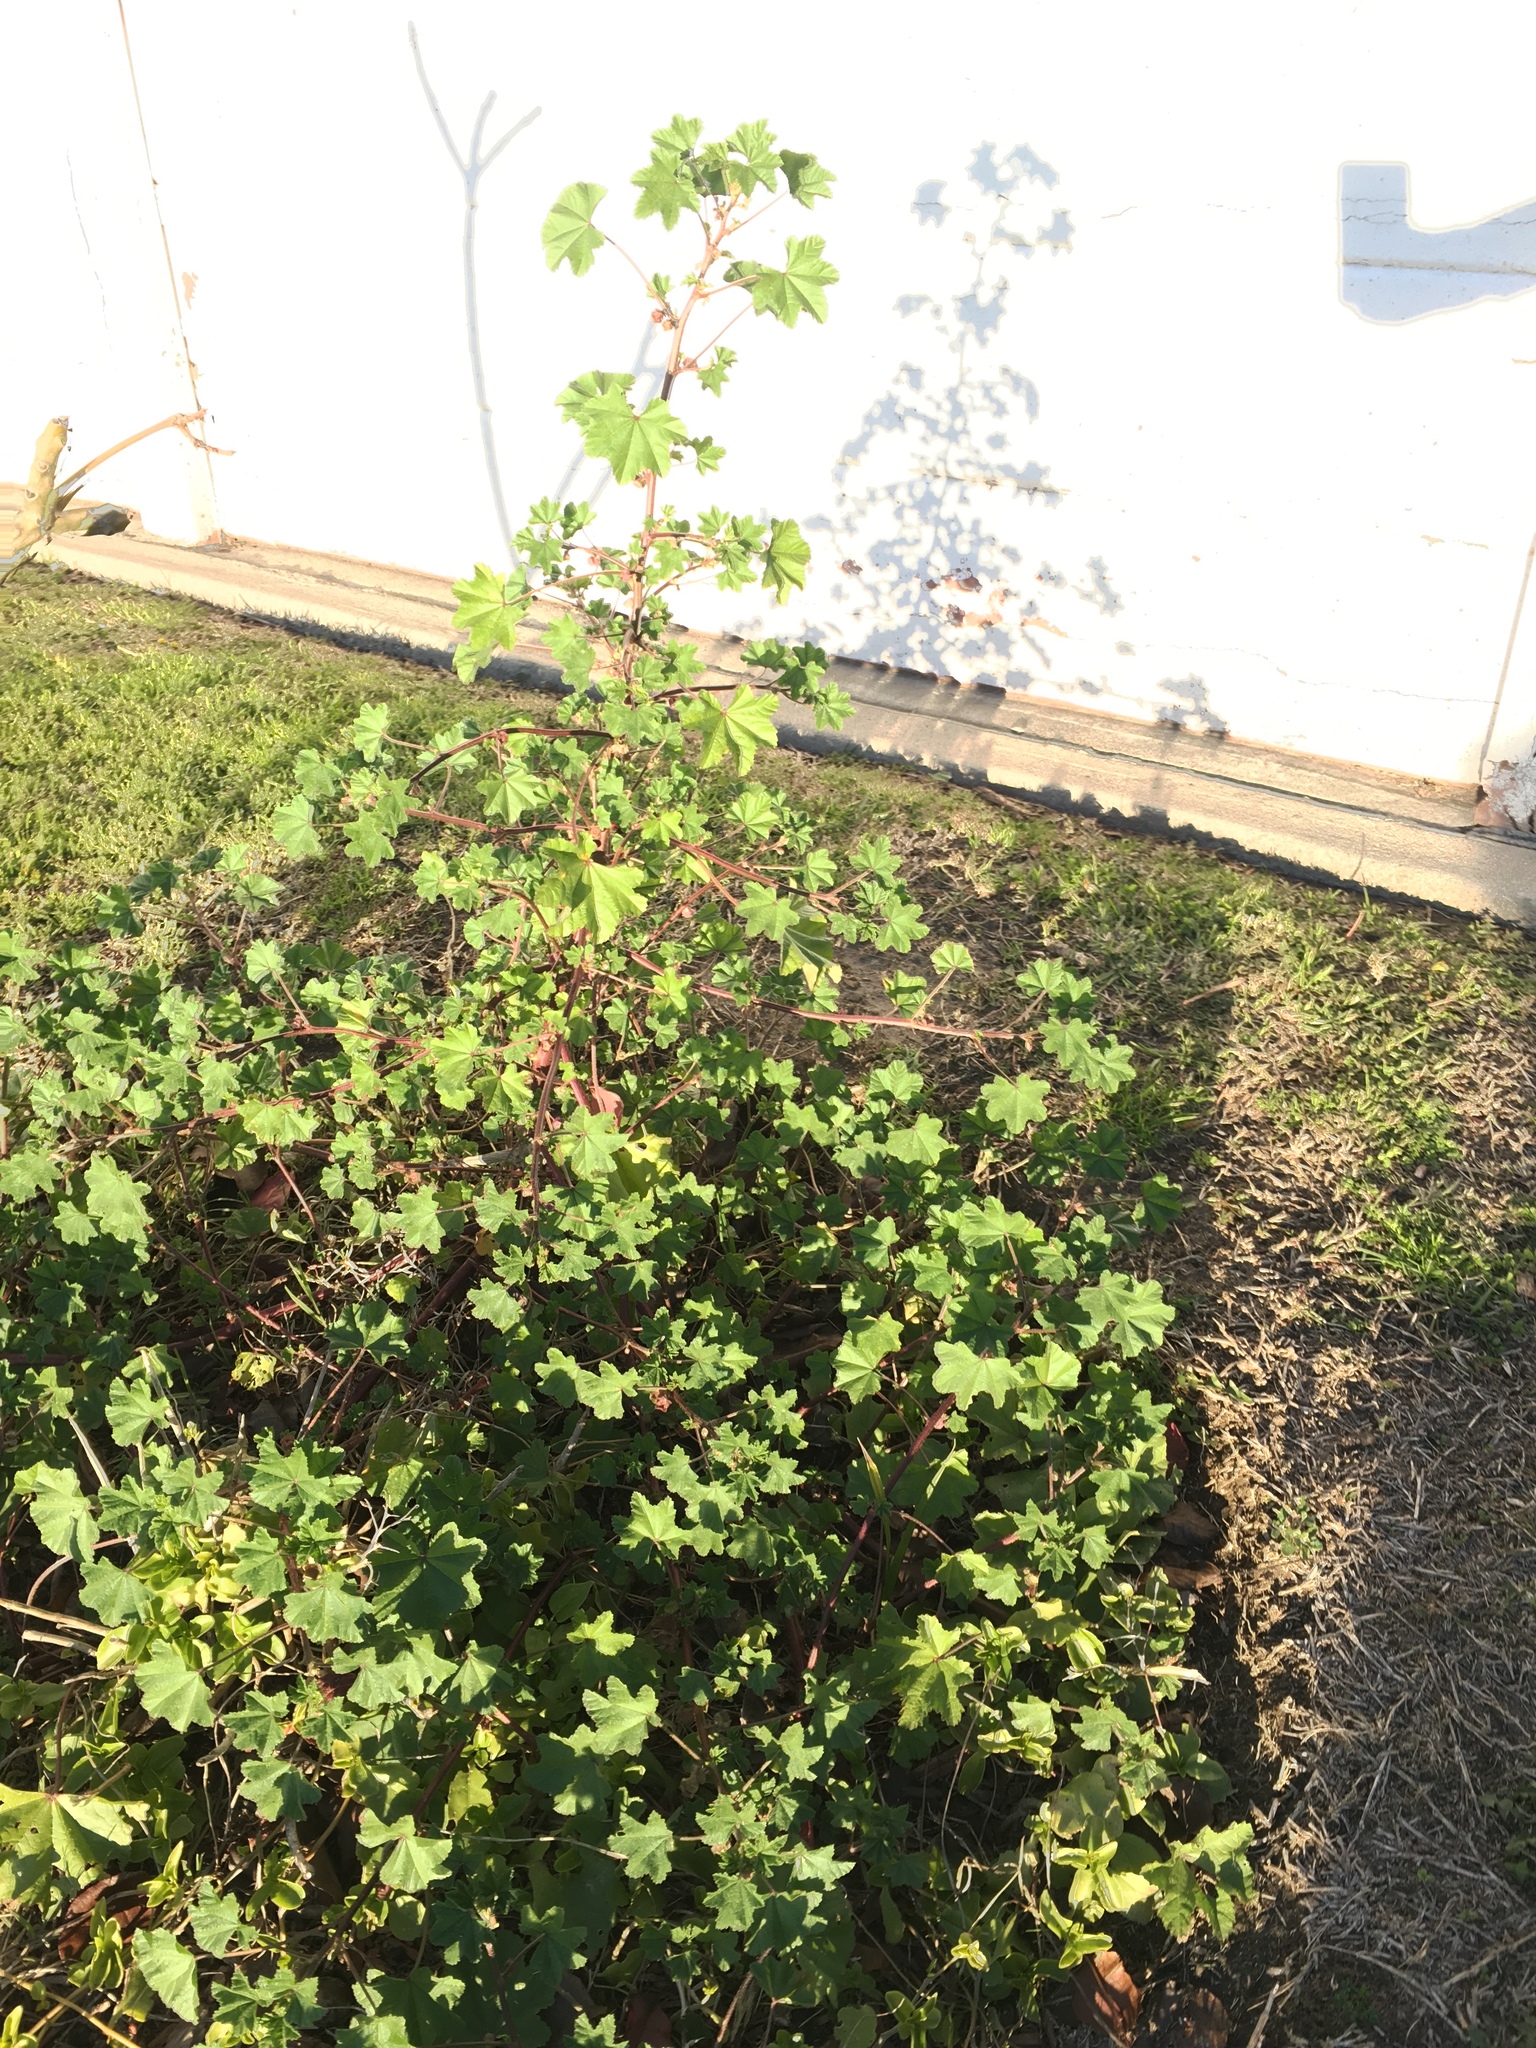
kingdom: Plantae
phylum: Tracheophyta
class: Magnoliopsida
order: Malvales
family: Malvaceae
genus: Malva
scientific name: Malva parviflora
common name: Least mallow
